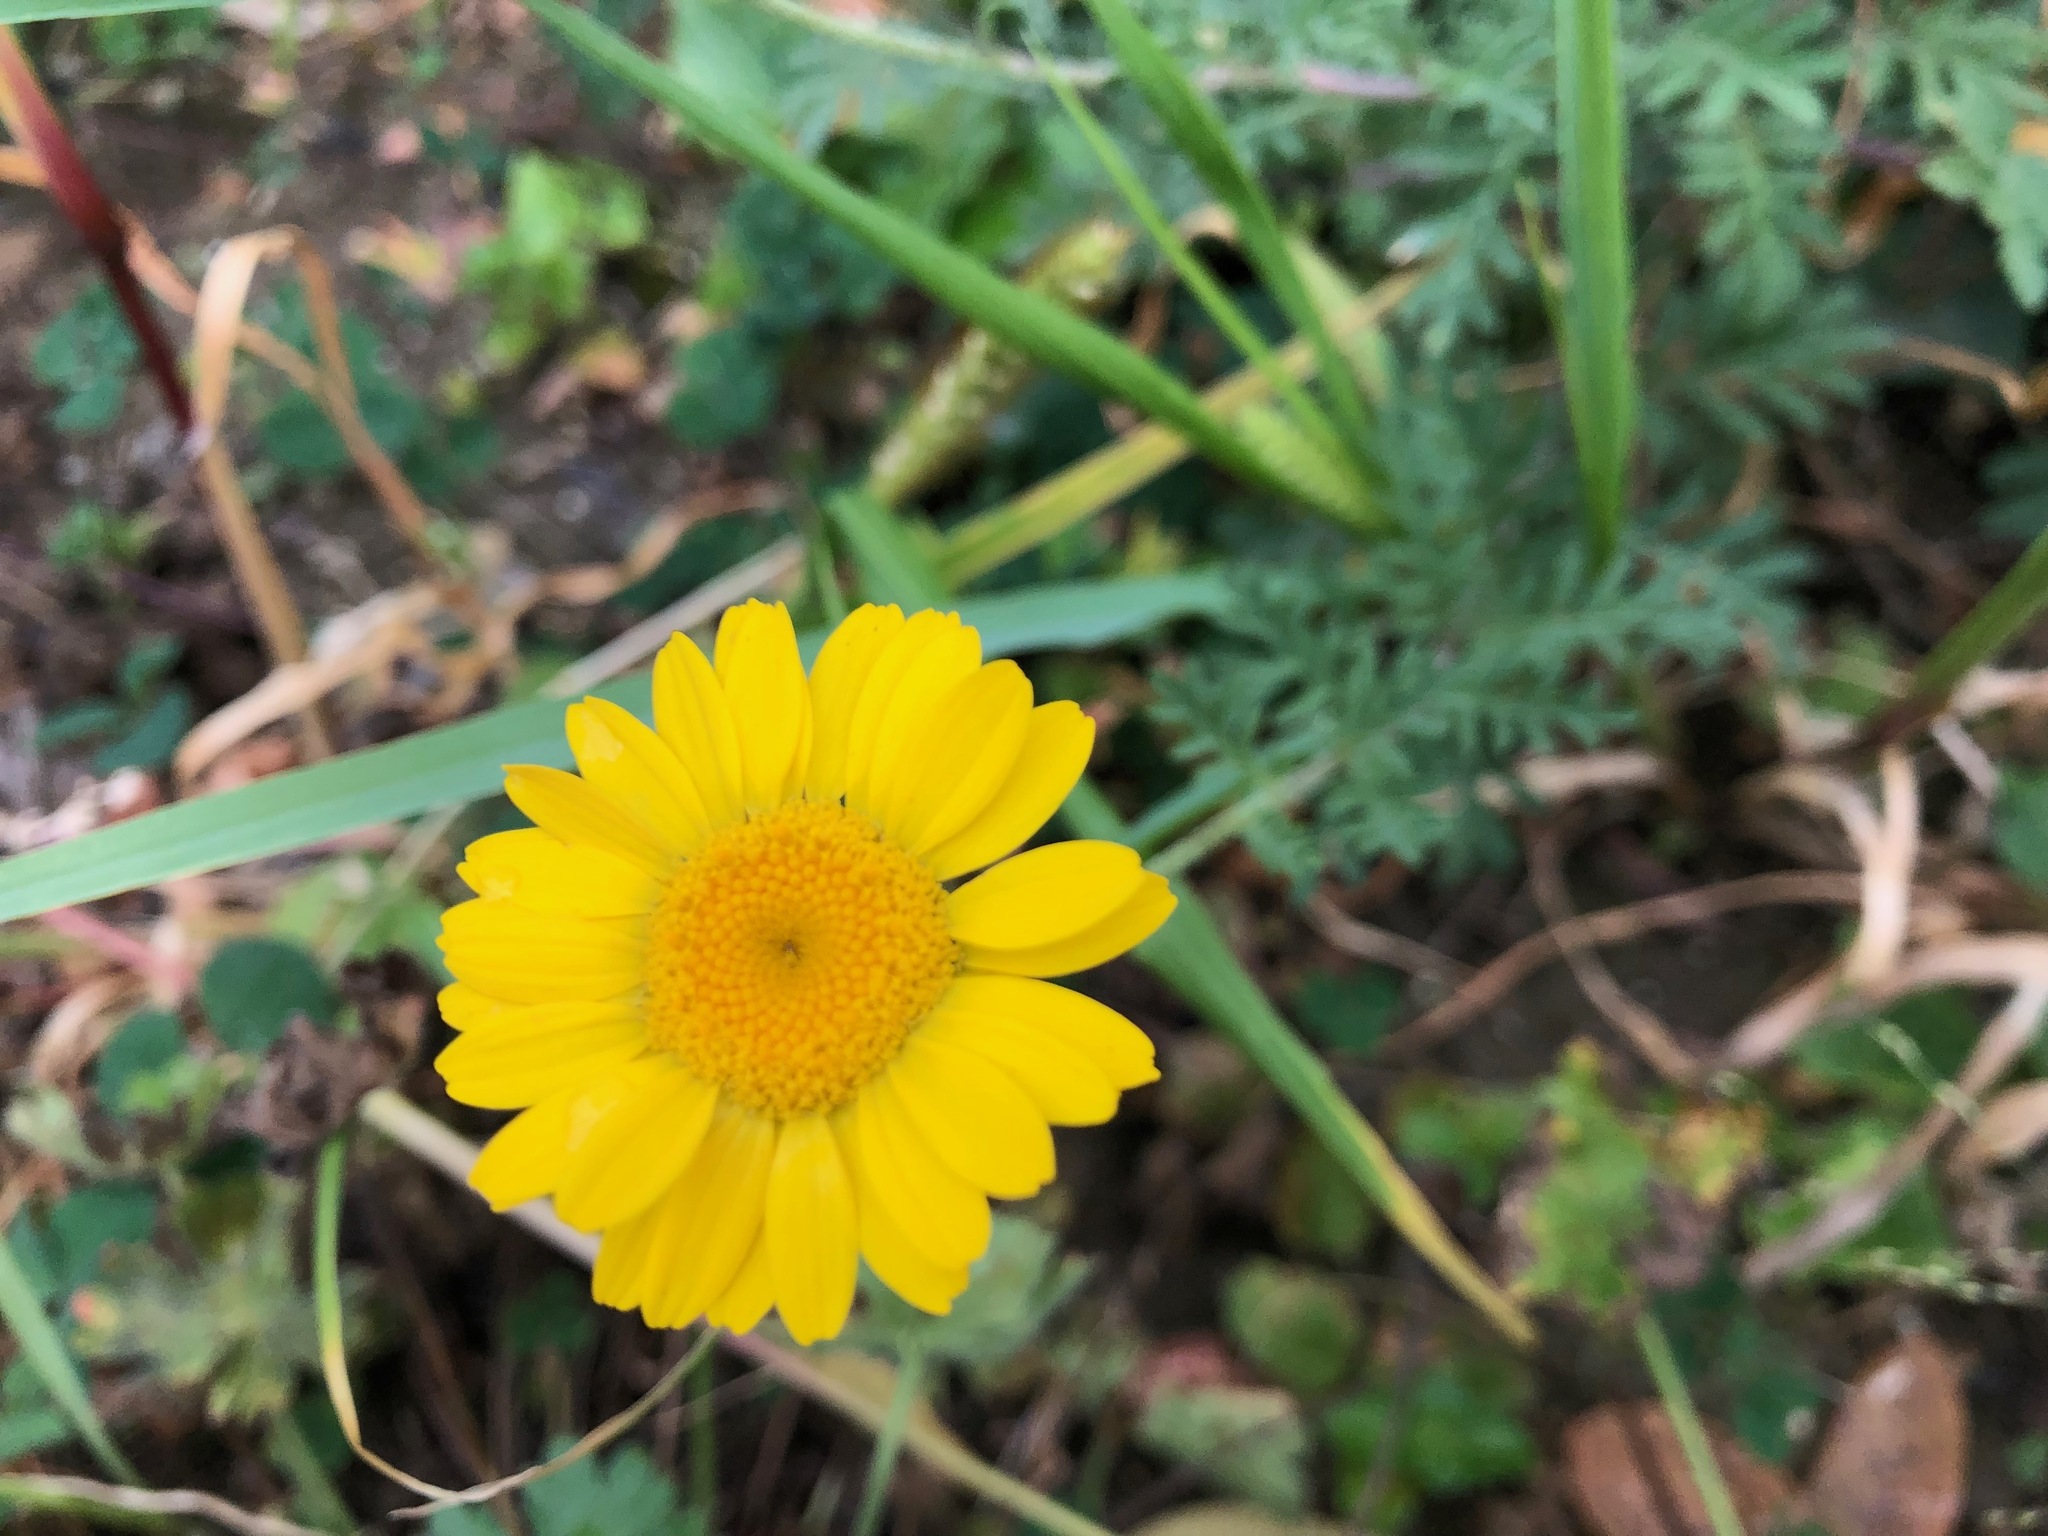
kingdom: Plantae
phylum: Tracheophyta
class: Magnoliopsida
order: Asterales
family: Asteraceae
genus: Cota
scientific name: Cota tinctoria
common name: Golden chamomile
